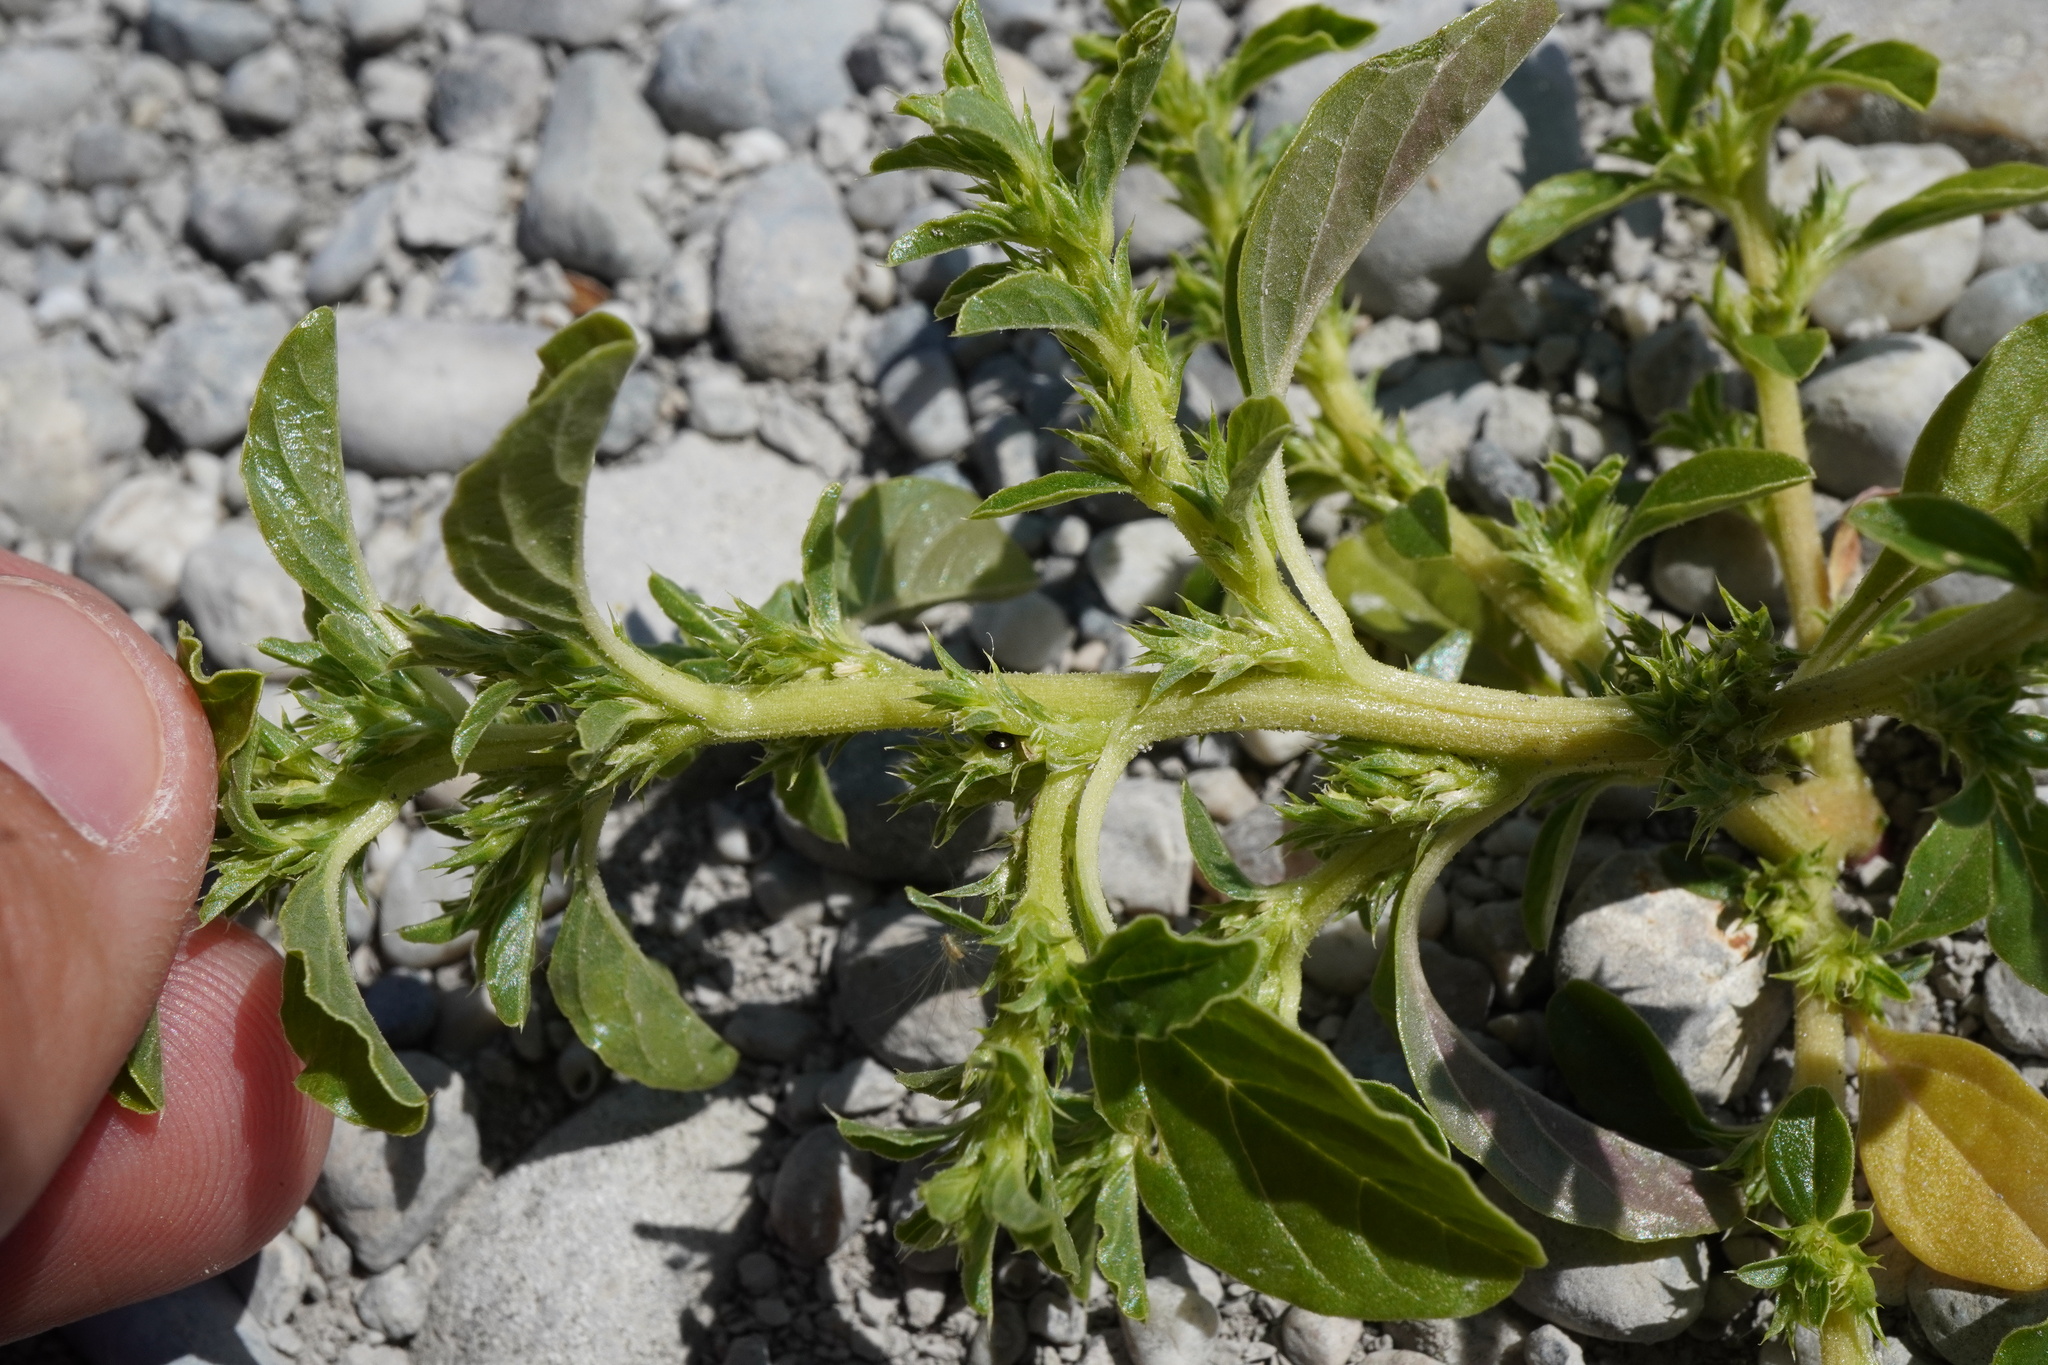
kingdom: Plantae
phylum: Tracheophyta
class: Magnoliopsida
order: Caryophyllales
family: Amaranthaceae
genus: Amaranthus
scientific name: Amaranthus albus
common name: White pigweed
